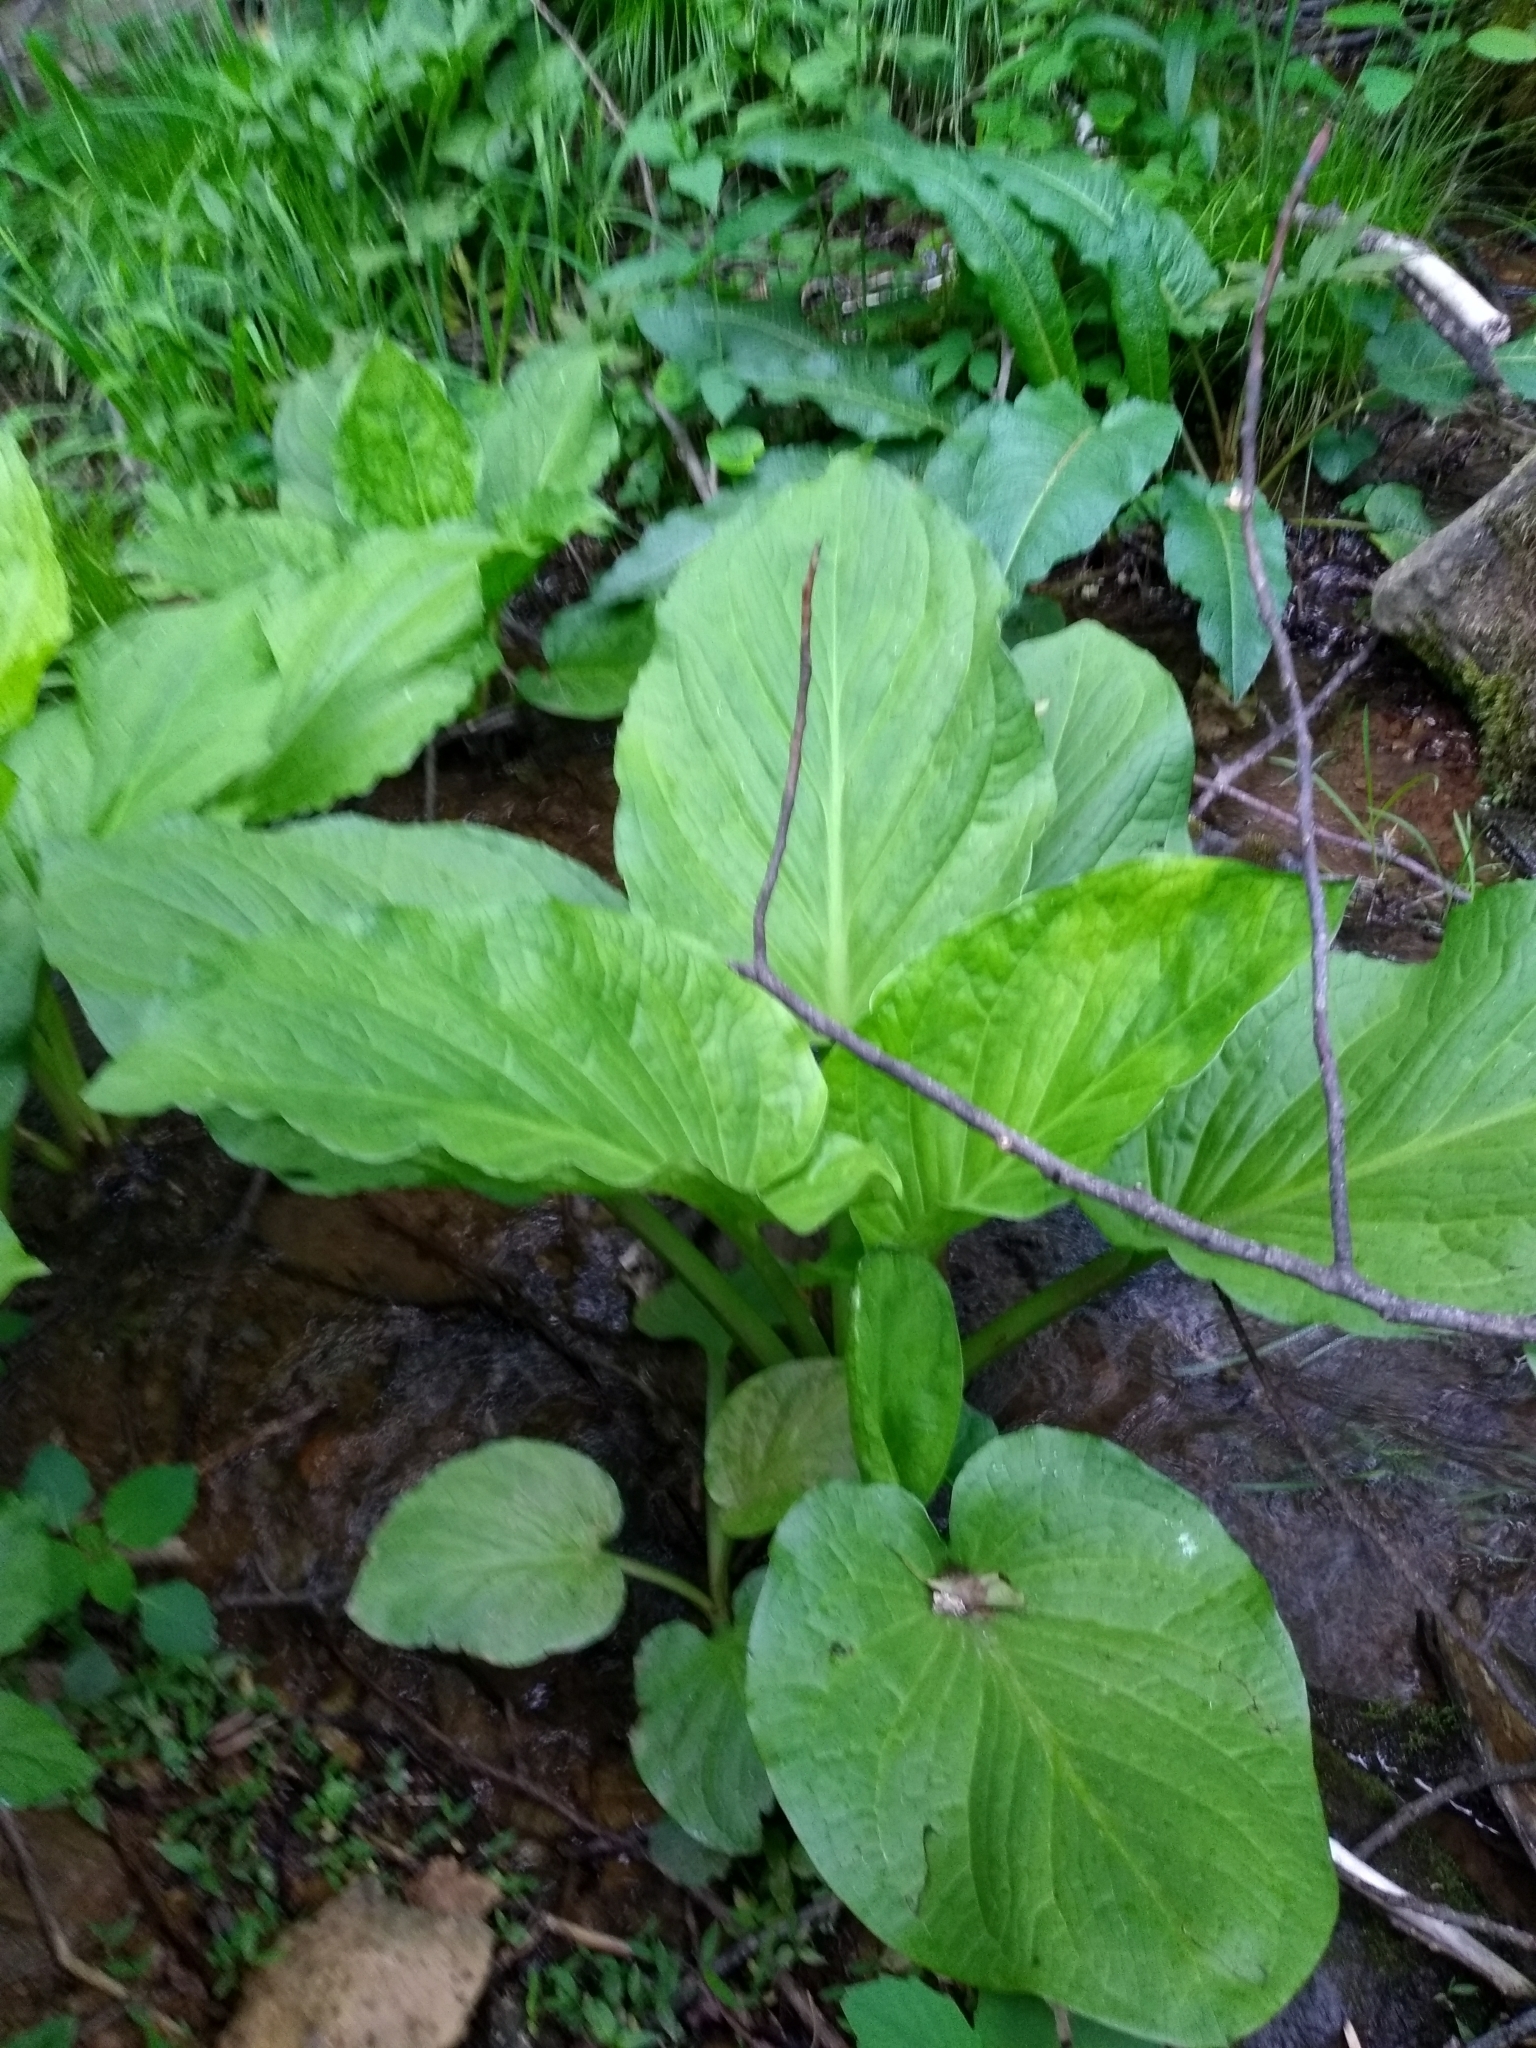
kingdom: Plantae
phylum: Tracheophyta
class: Liliopsida
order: Alismatales
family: Araceae
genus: Symplocarpus
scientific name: Symplocarpus foetidus
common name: Eastern skunk cabbage
